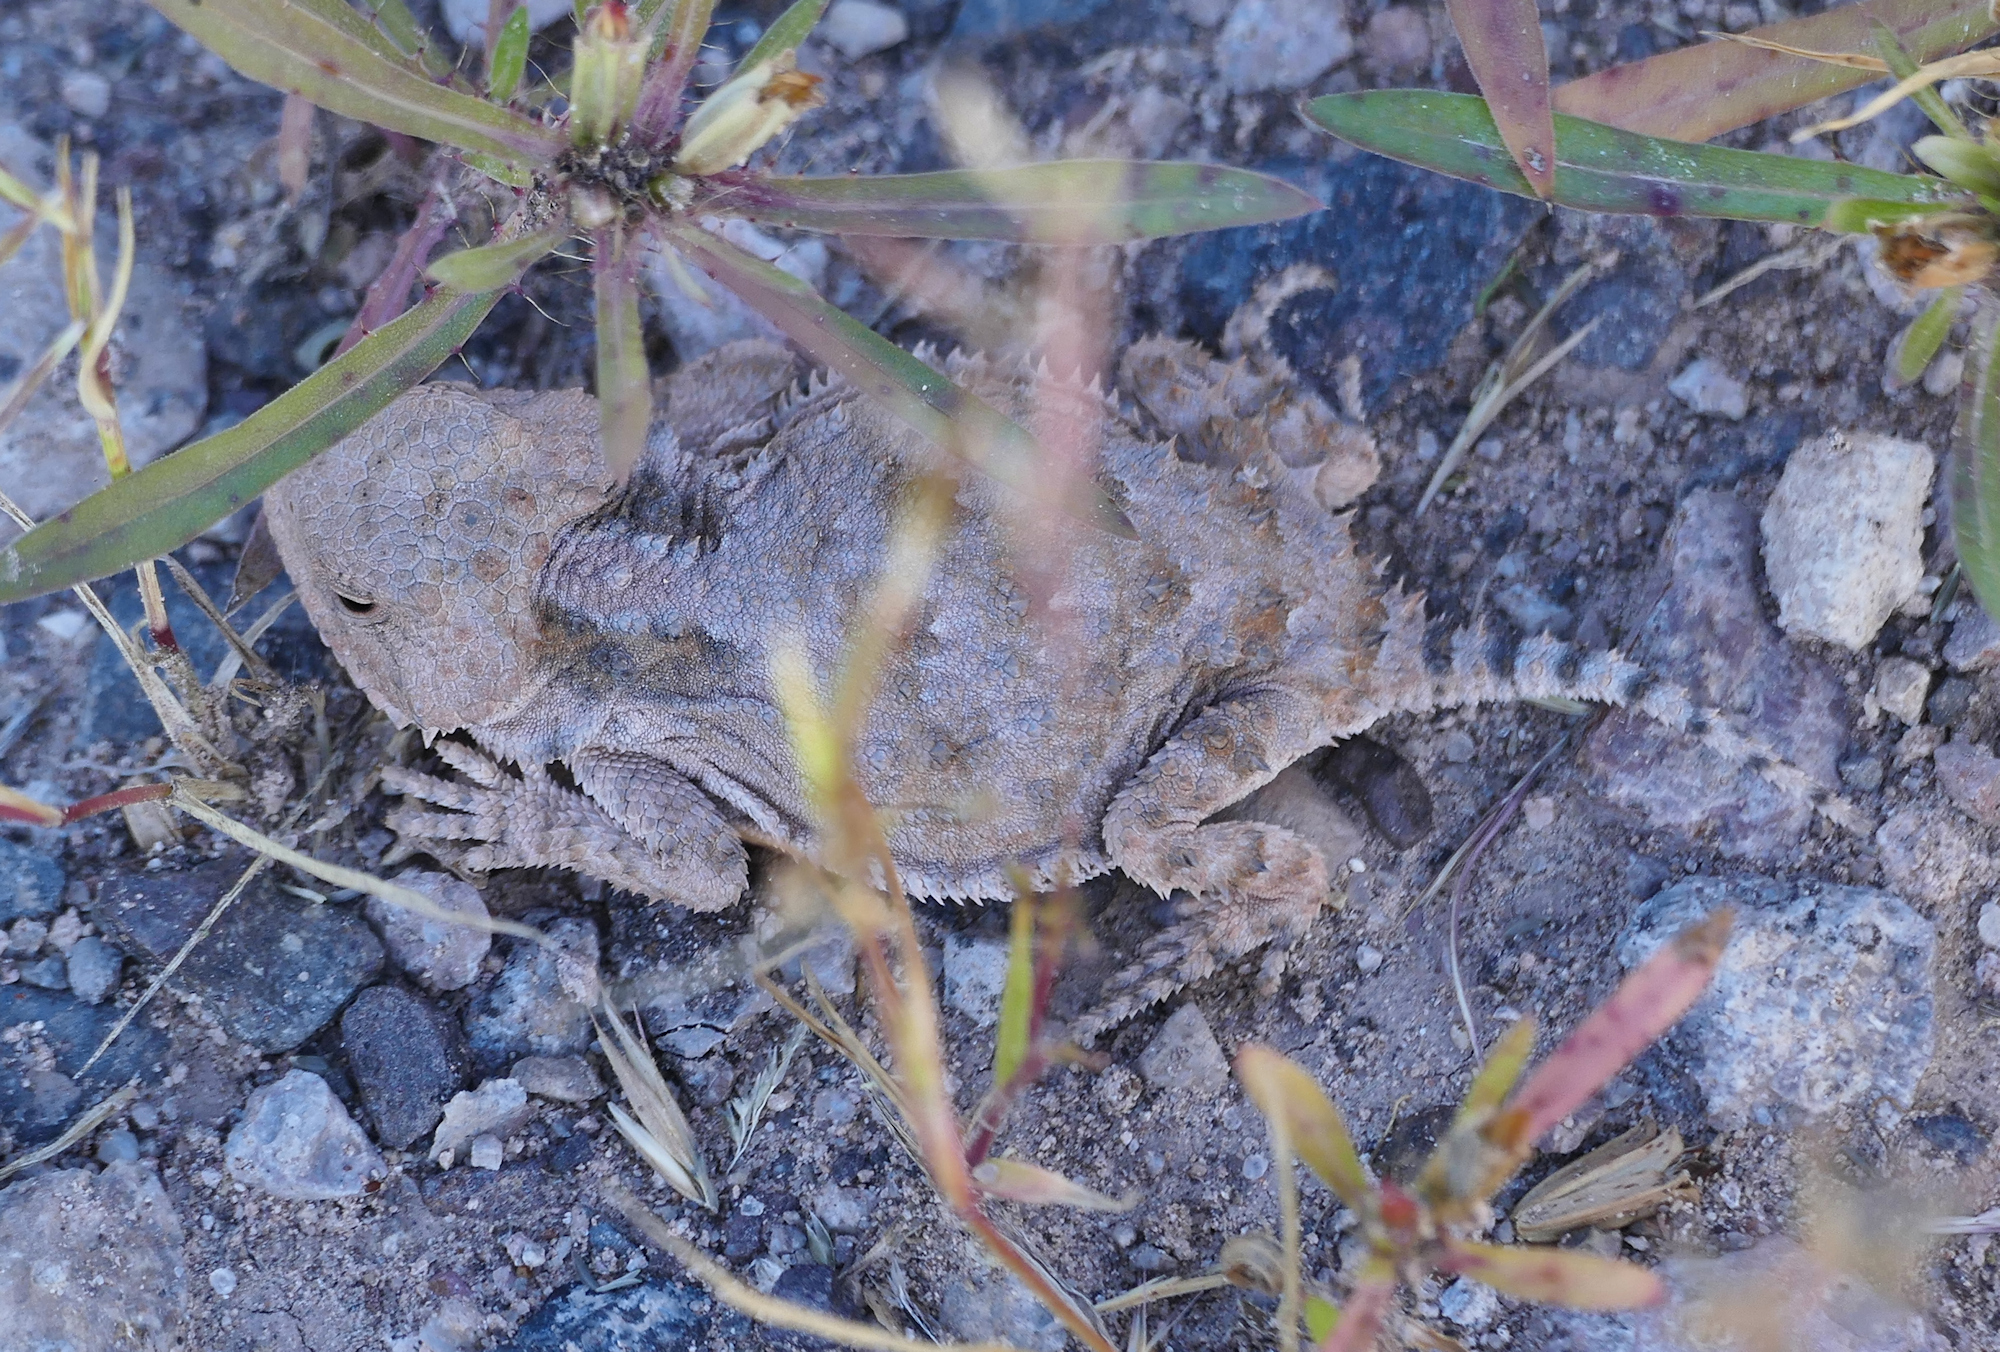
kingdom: Animalia
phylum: Chordata
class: Squamata
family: Phrynosomatidae
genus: Phrynosoma
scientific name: Phrynosoma hernandesi
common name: Greater short-horned lizard
